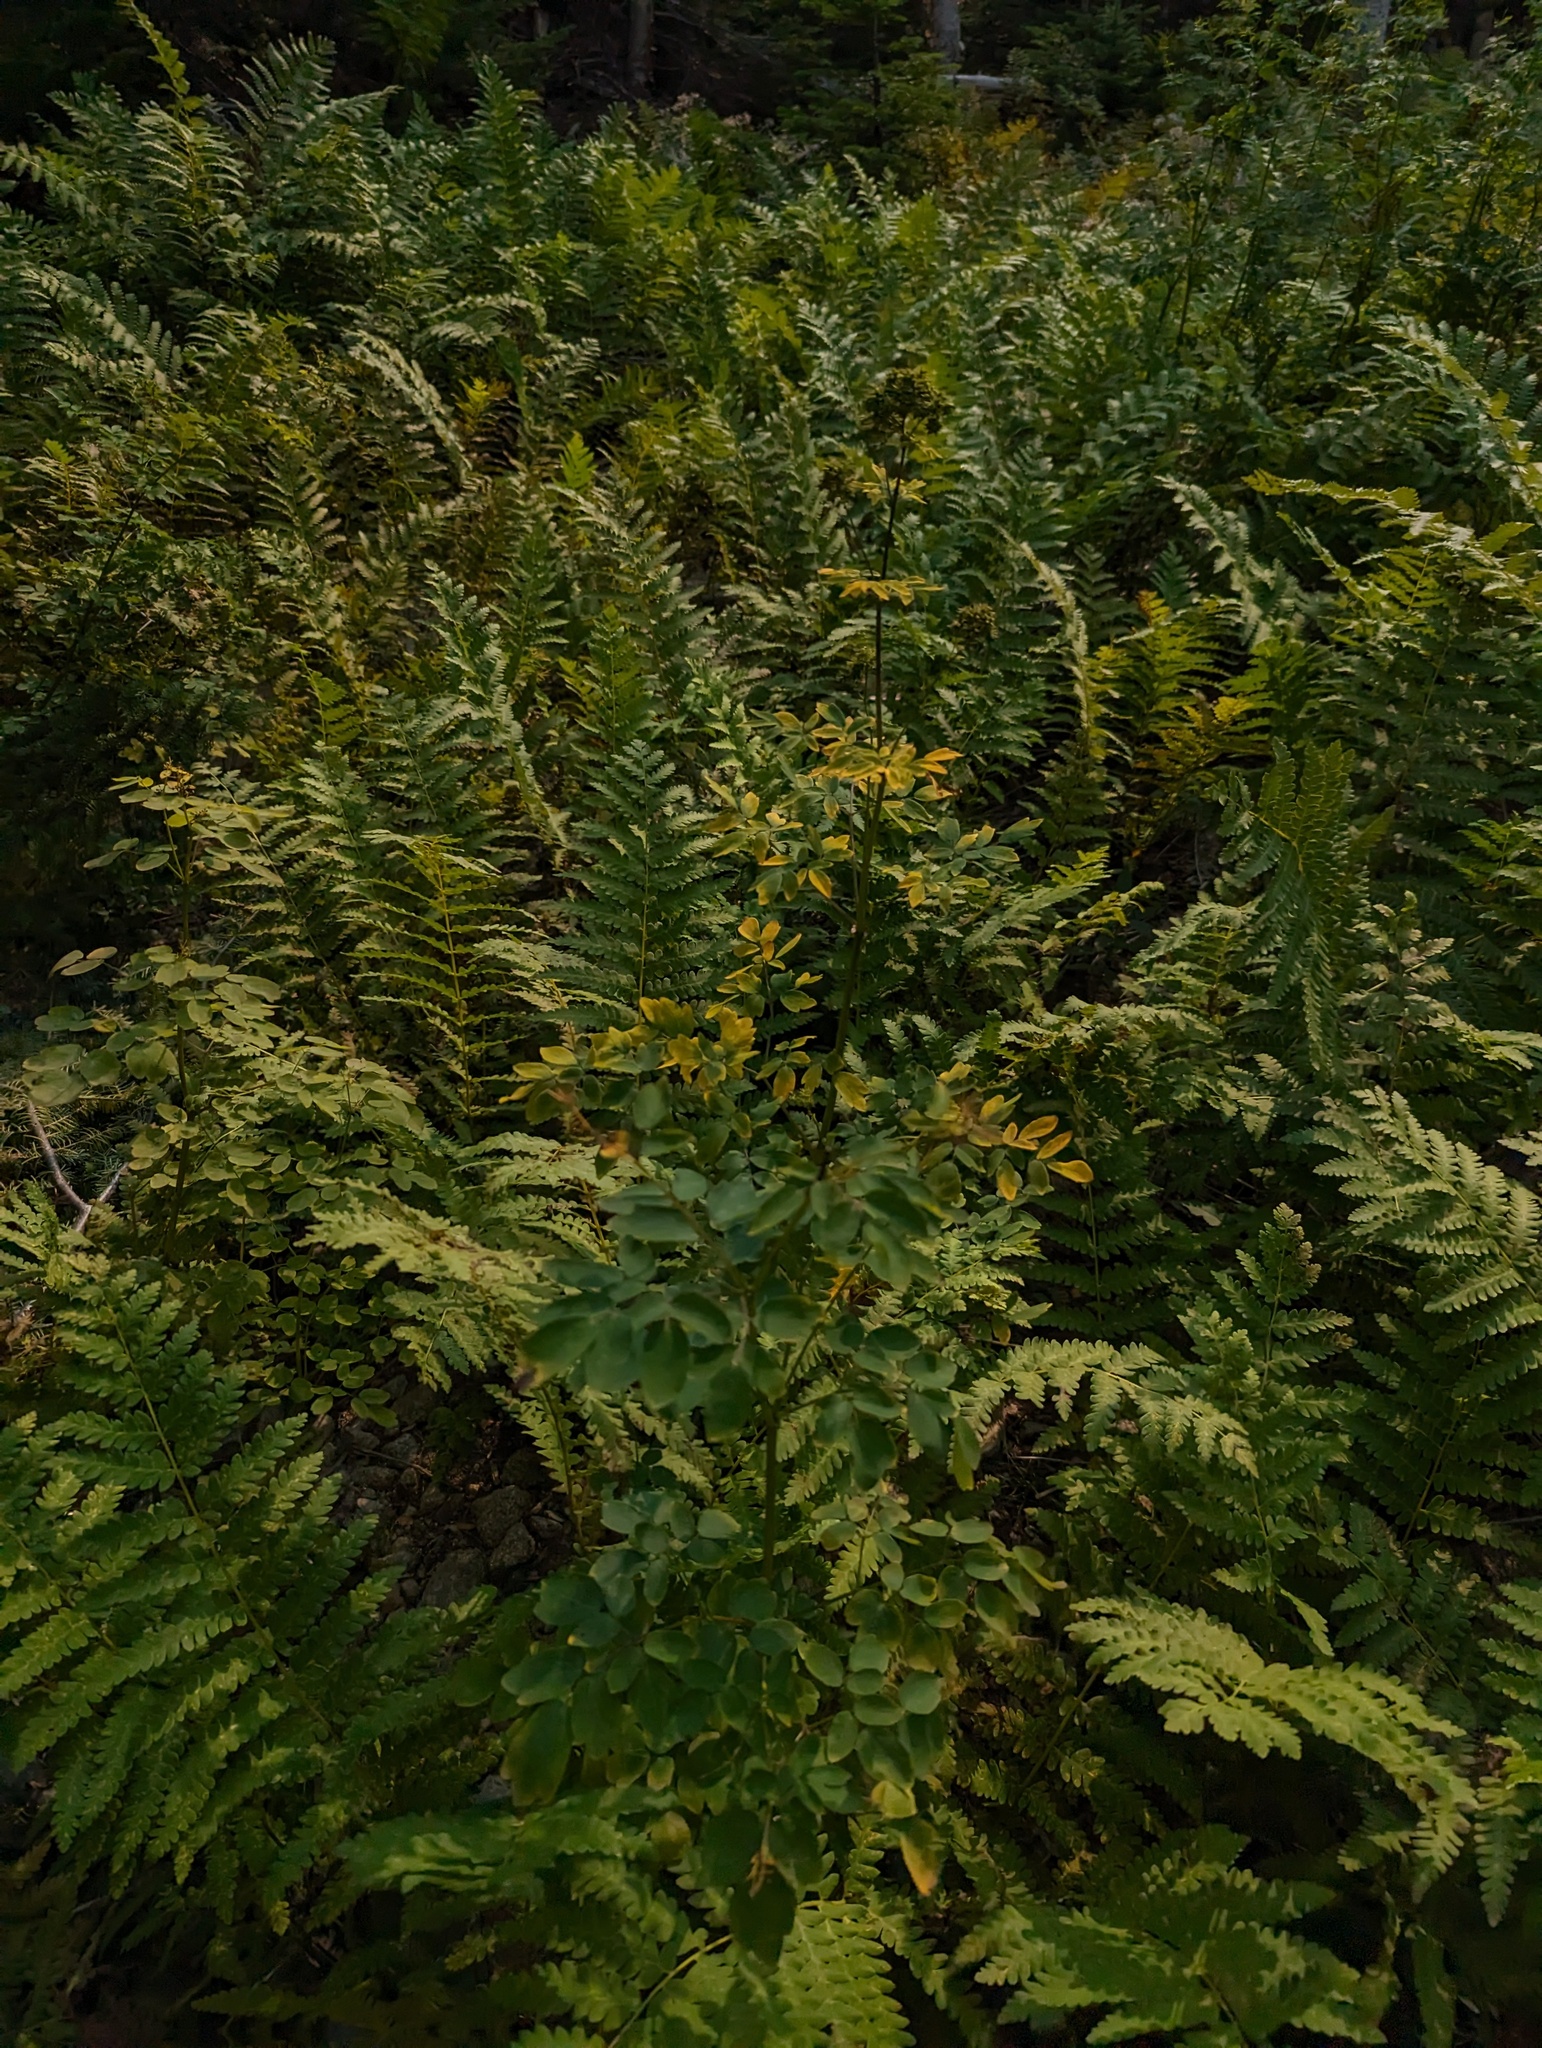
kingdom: Plantae
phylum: Tracheophyta
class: Magnoliopsida
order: Ranunculales
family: Ranunculaceae
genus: Thalictrum
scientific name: Thalictrum pubescens
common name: King-of-the-meadow
